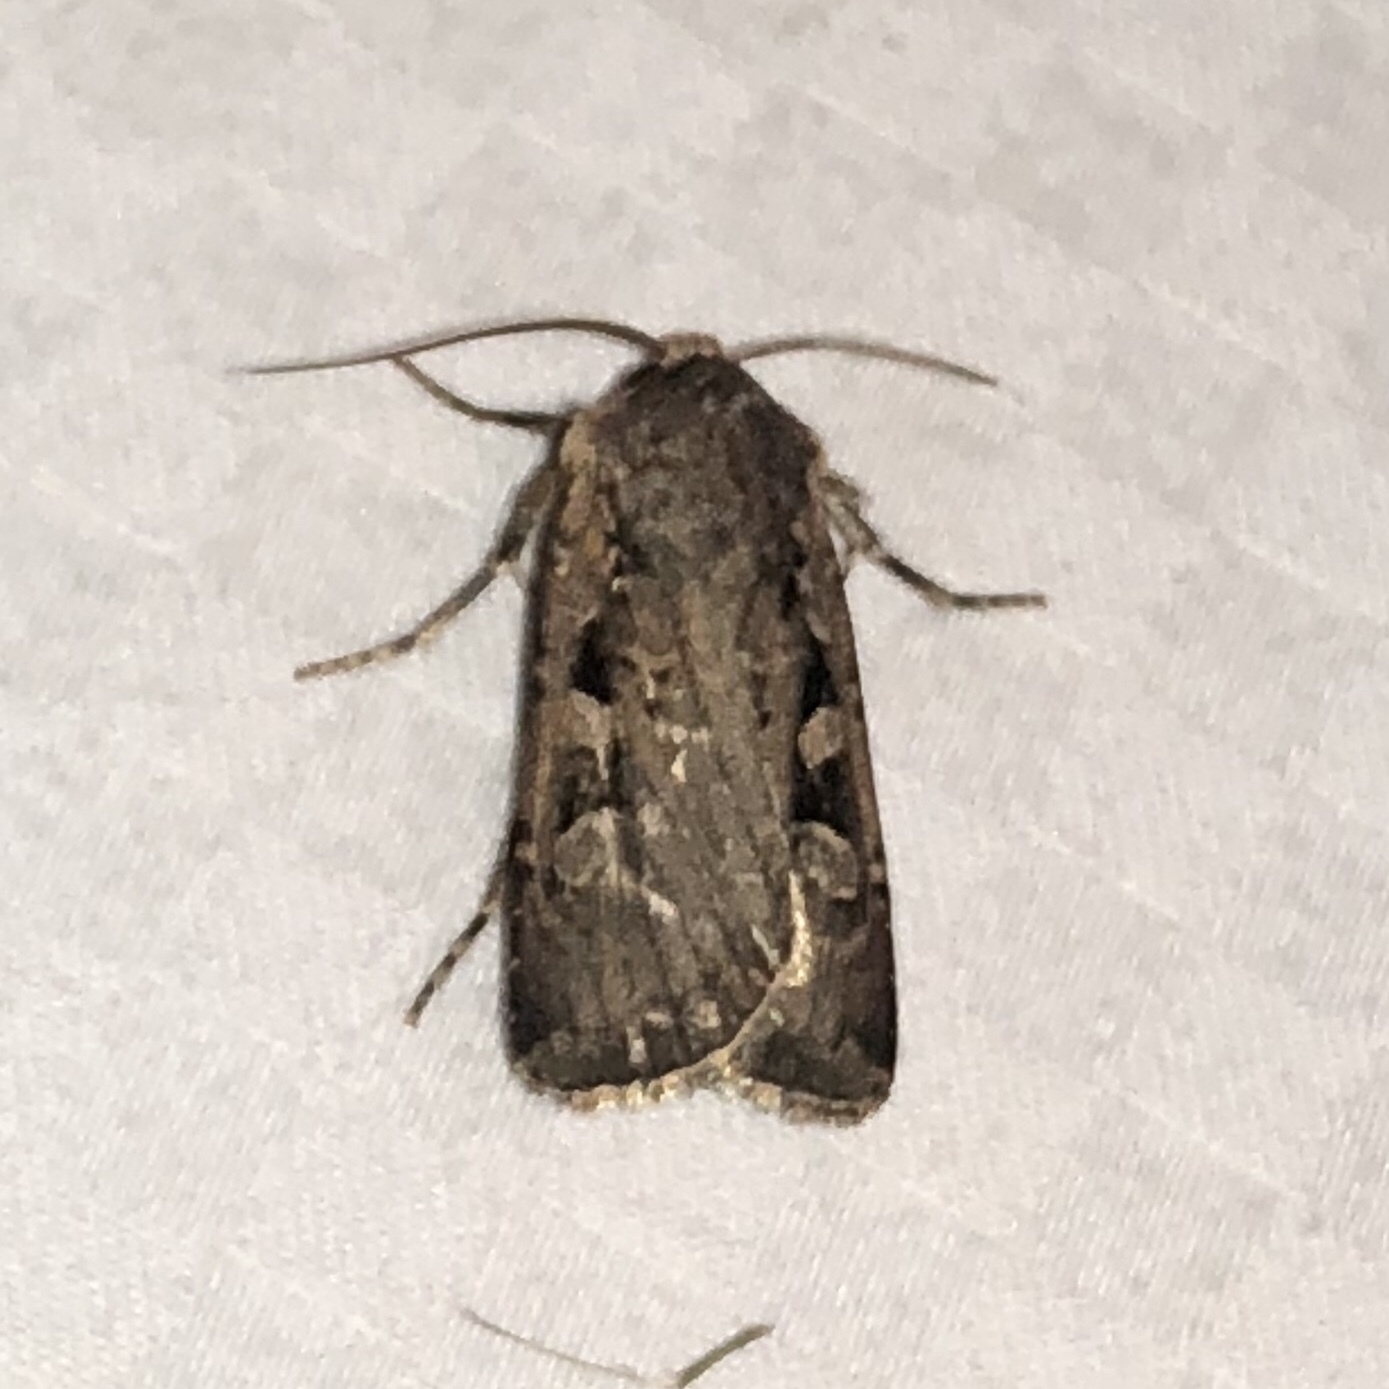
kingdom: Animalia
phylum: Arthropoda
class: Insecta
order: Lepidoptera
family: Noctuidae
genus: Euxoa
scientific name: Euxoa tessellata
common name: Striped cutworm
